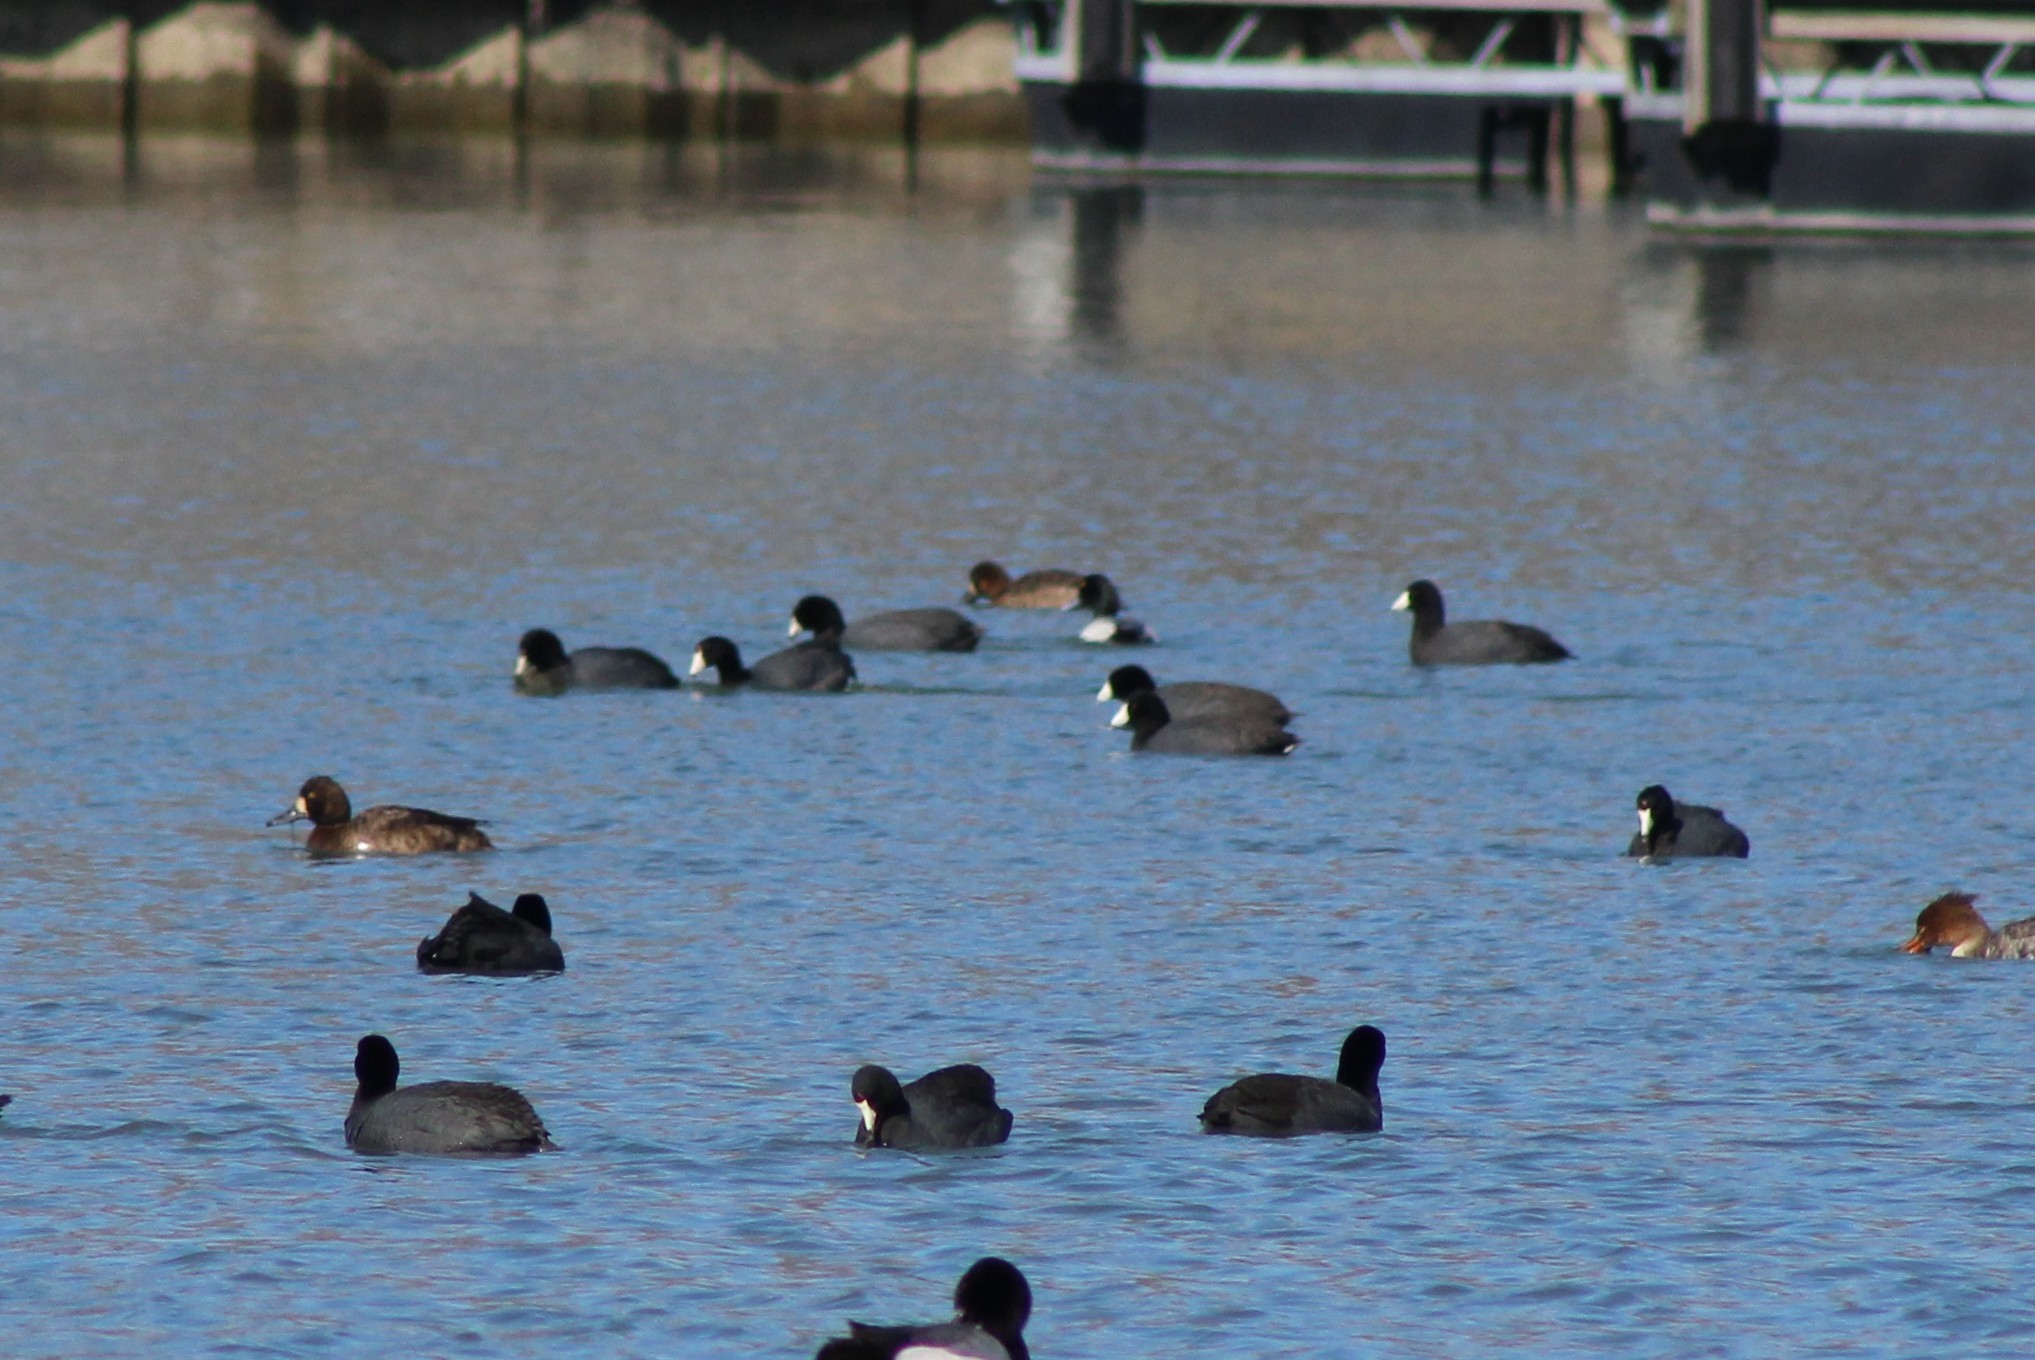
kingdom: Animalia
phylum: Chordata
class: Aves
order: Gruiformes
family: Rallidae
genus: Fulica
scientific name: Fulica americana
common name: American coot
